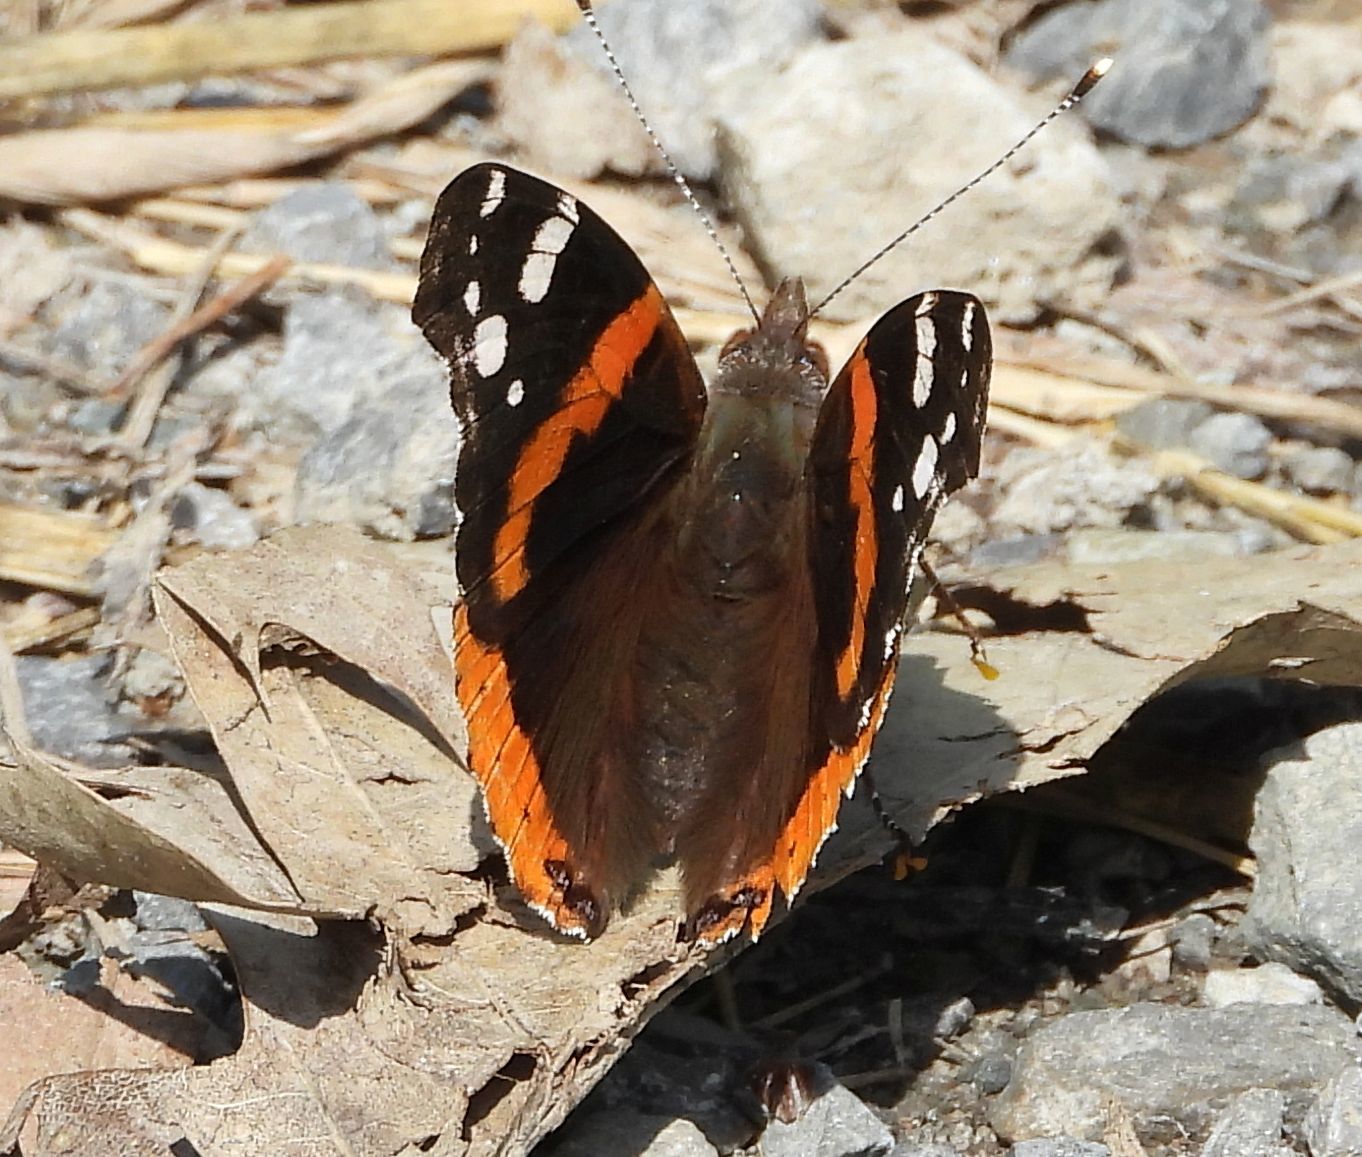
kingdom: Animalia
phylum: Arthropoda
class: Insecta
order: Lepidoptera
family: Nymphalidae
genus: Vanessa
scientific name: Vanessa atalanta
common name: Red admiral
